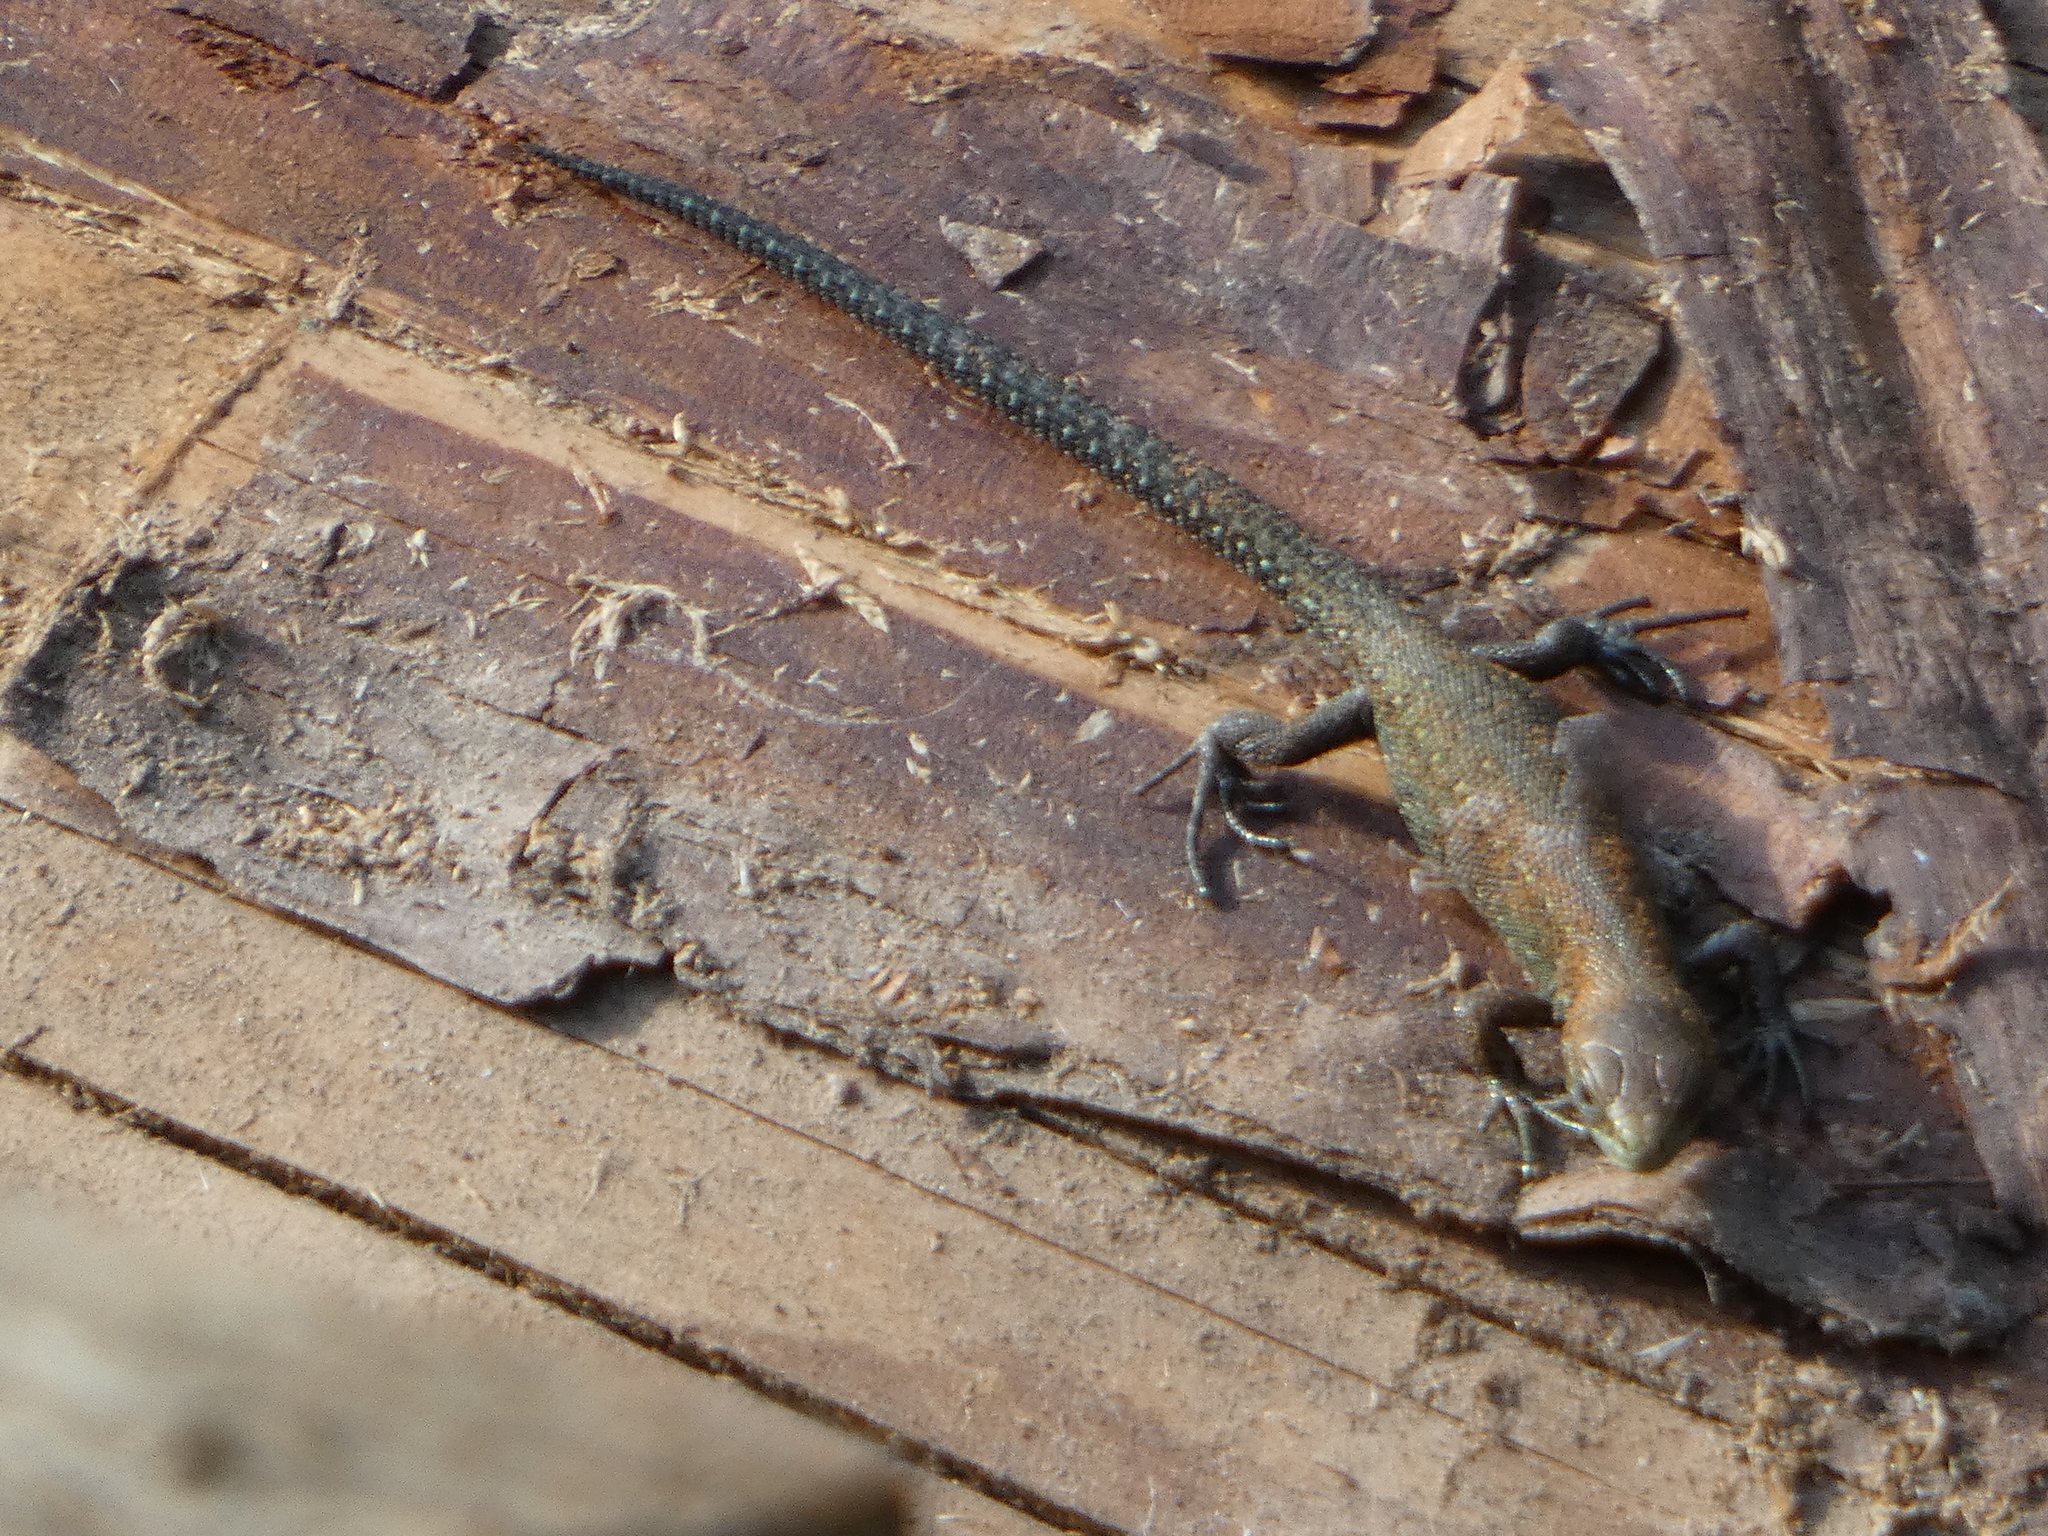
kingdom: Animalia
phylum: Chordata
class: Squamata
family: Lacertidae
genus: Zootoca
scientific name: Zootoca vivipara
